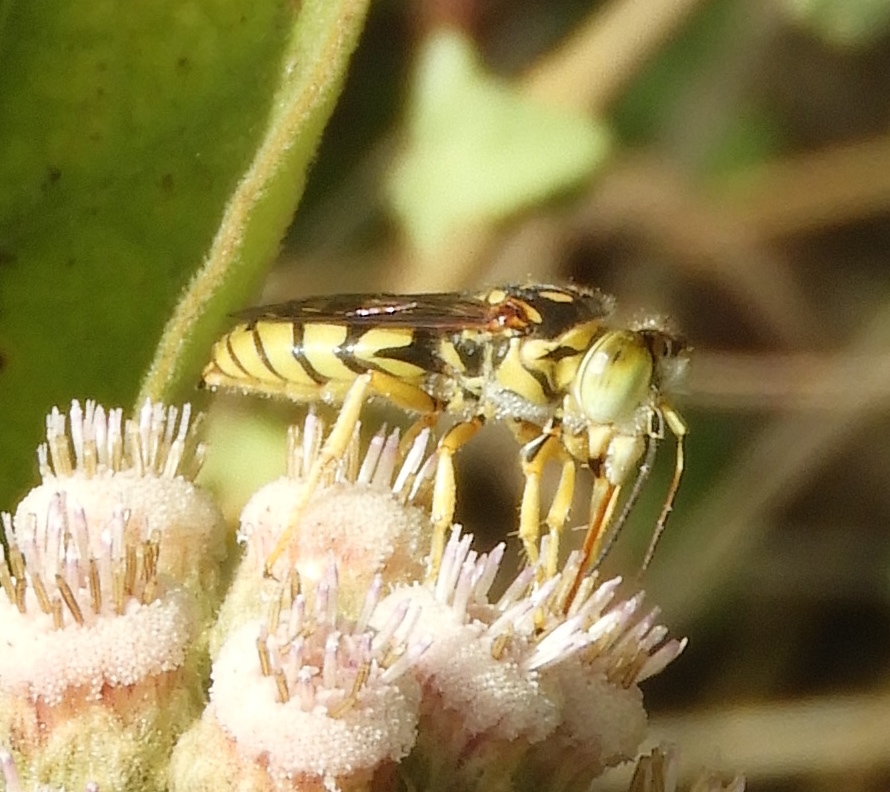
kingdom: Animalia
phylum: Arthropoda
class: Insecta
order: Hymenoptera
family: Crabronidae
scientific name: Crabronidae
